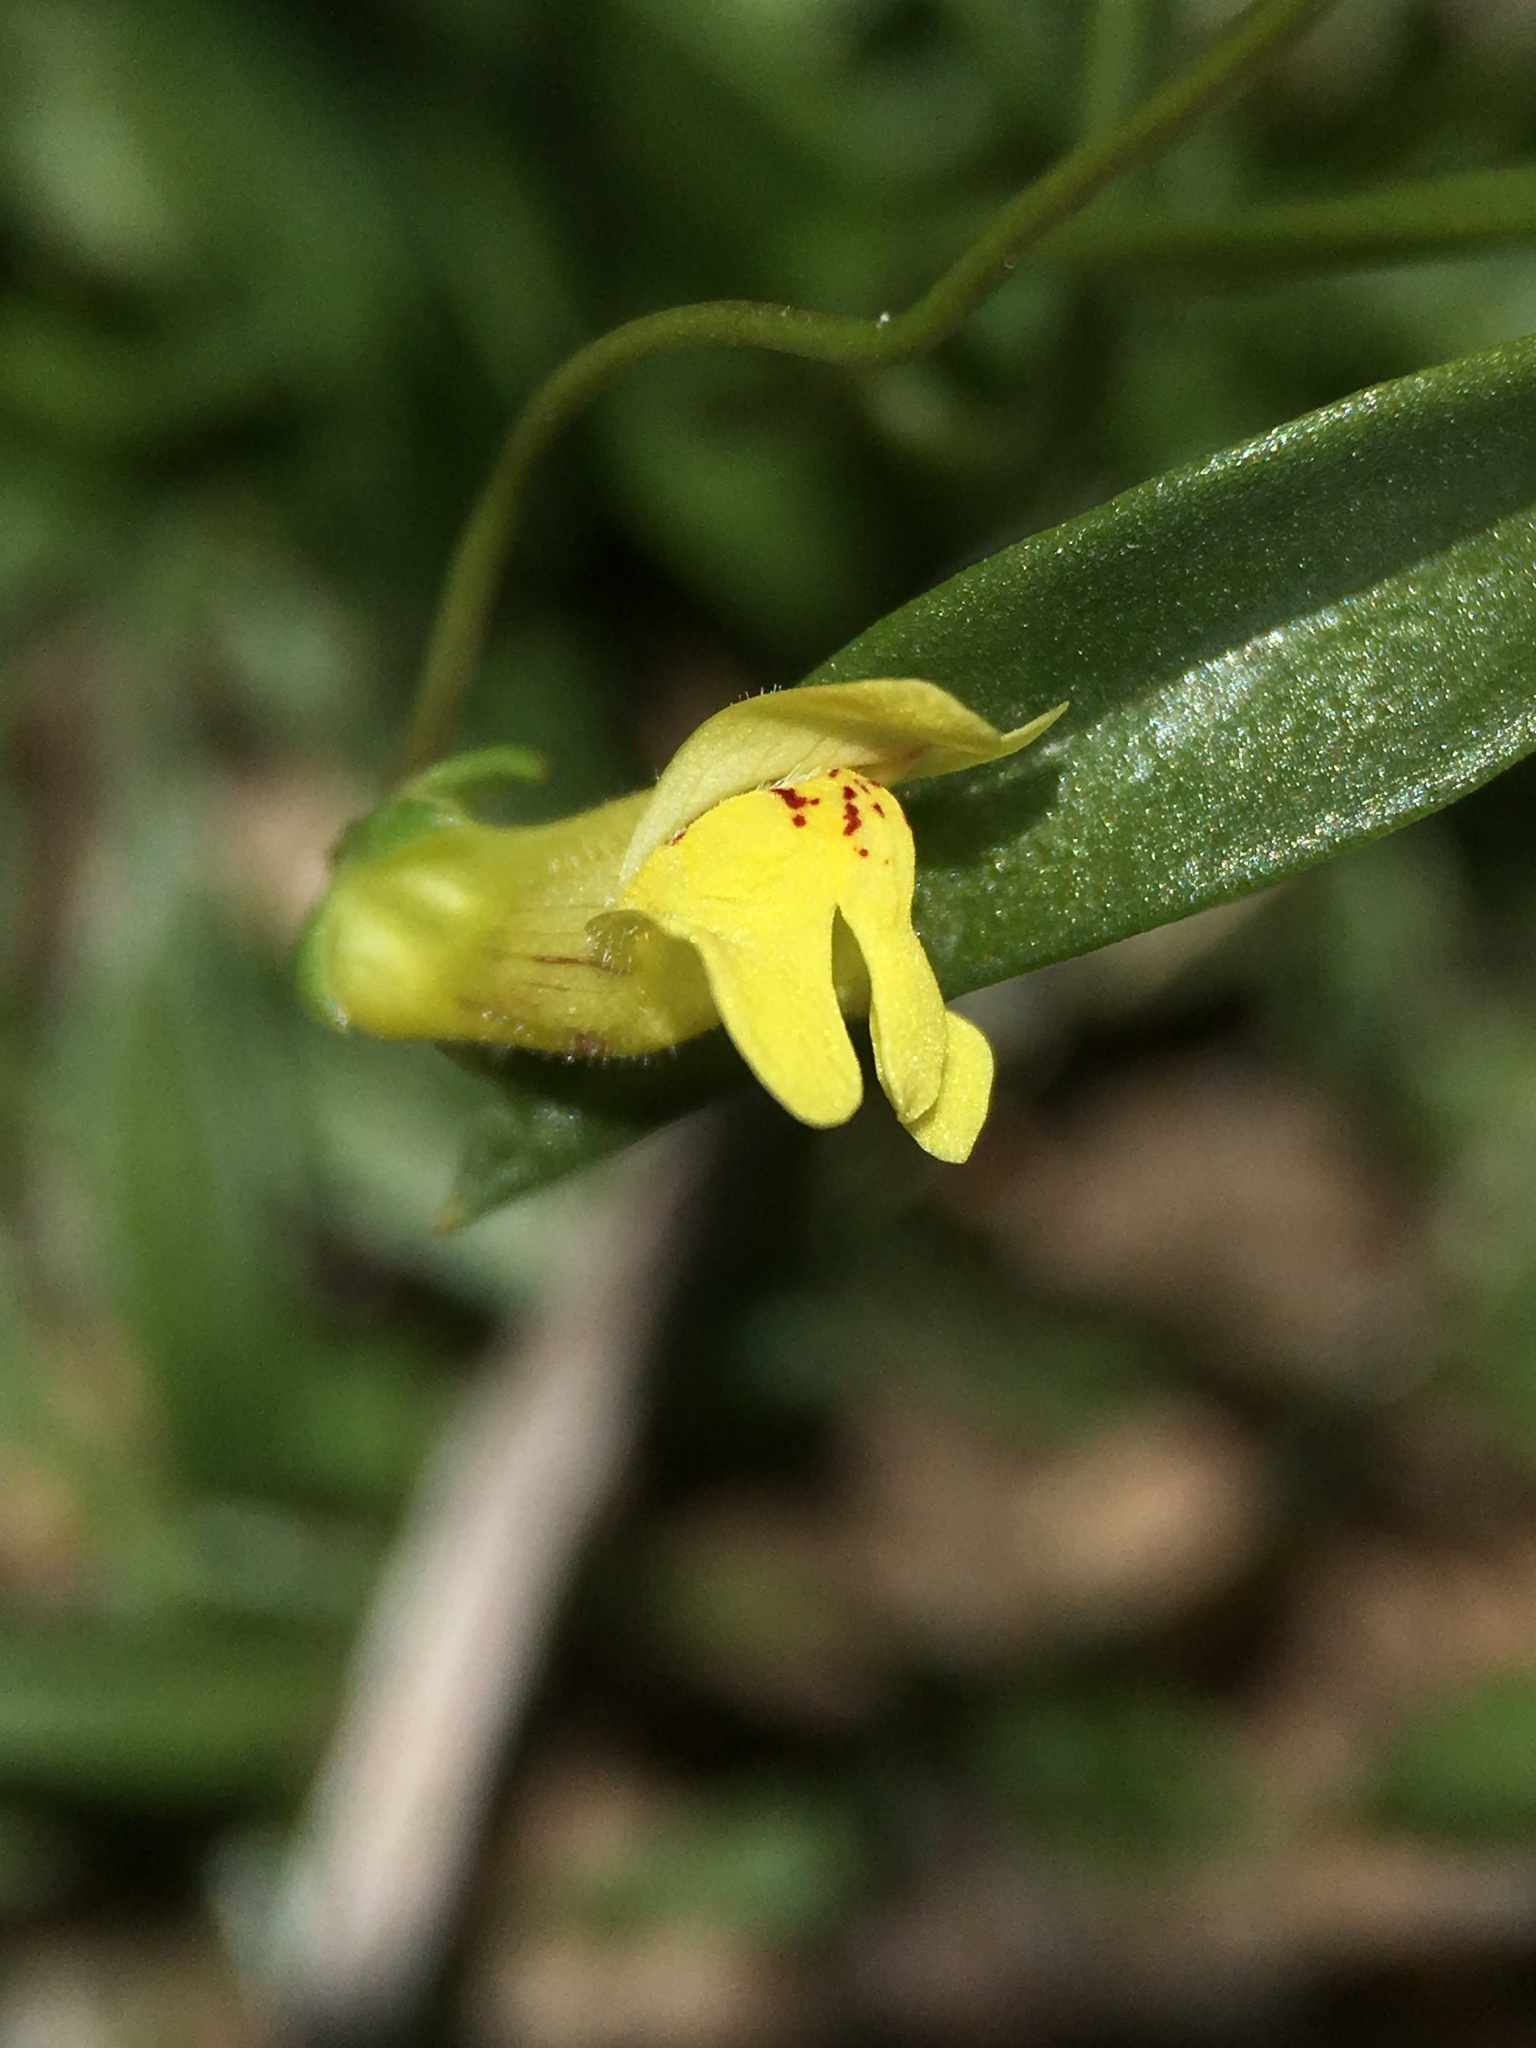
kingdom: Plantae
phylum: Tracheophyta
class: Magnoliopsida
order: Lamiales
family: Plantaginaceae
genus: Neogaerrhinum
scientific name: Neogaerrhinum filipes
